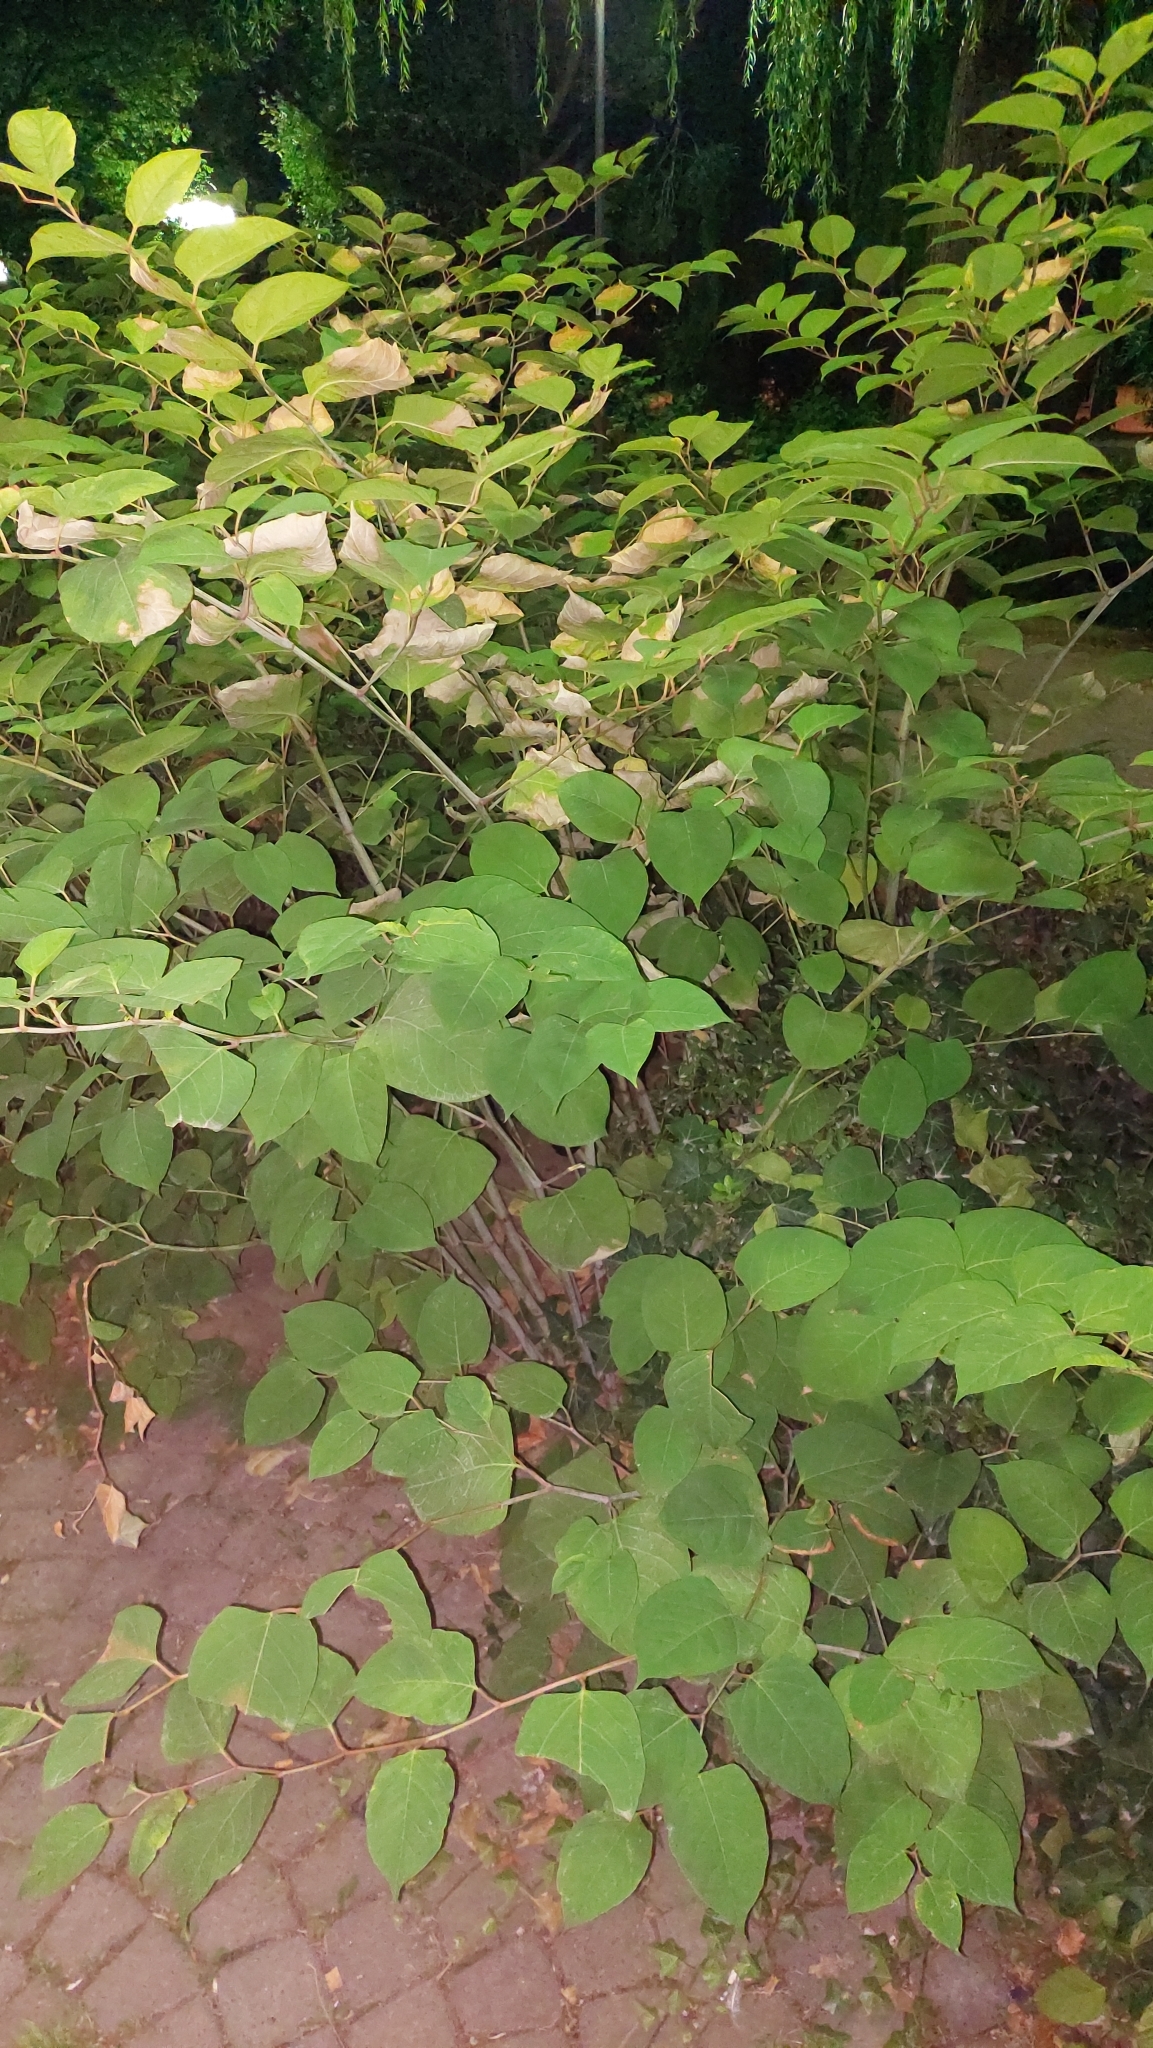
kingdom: Plantae
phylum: Tracheophyta
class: Magnoliopsida
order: Caryophyllales
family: Polygonaceae
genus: Reynoutria
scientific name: Reynoutria japonica
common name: Japanese knotweed
